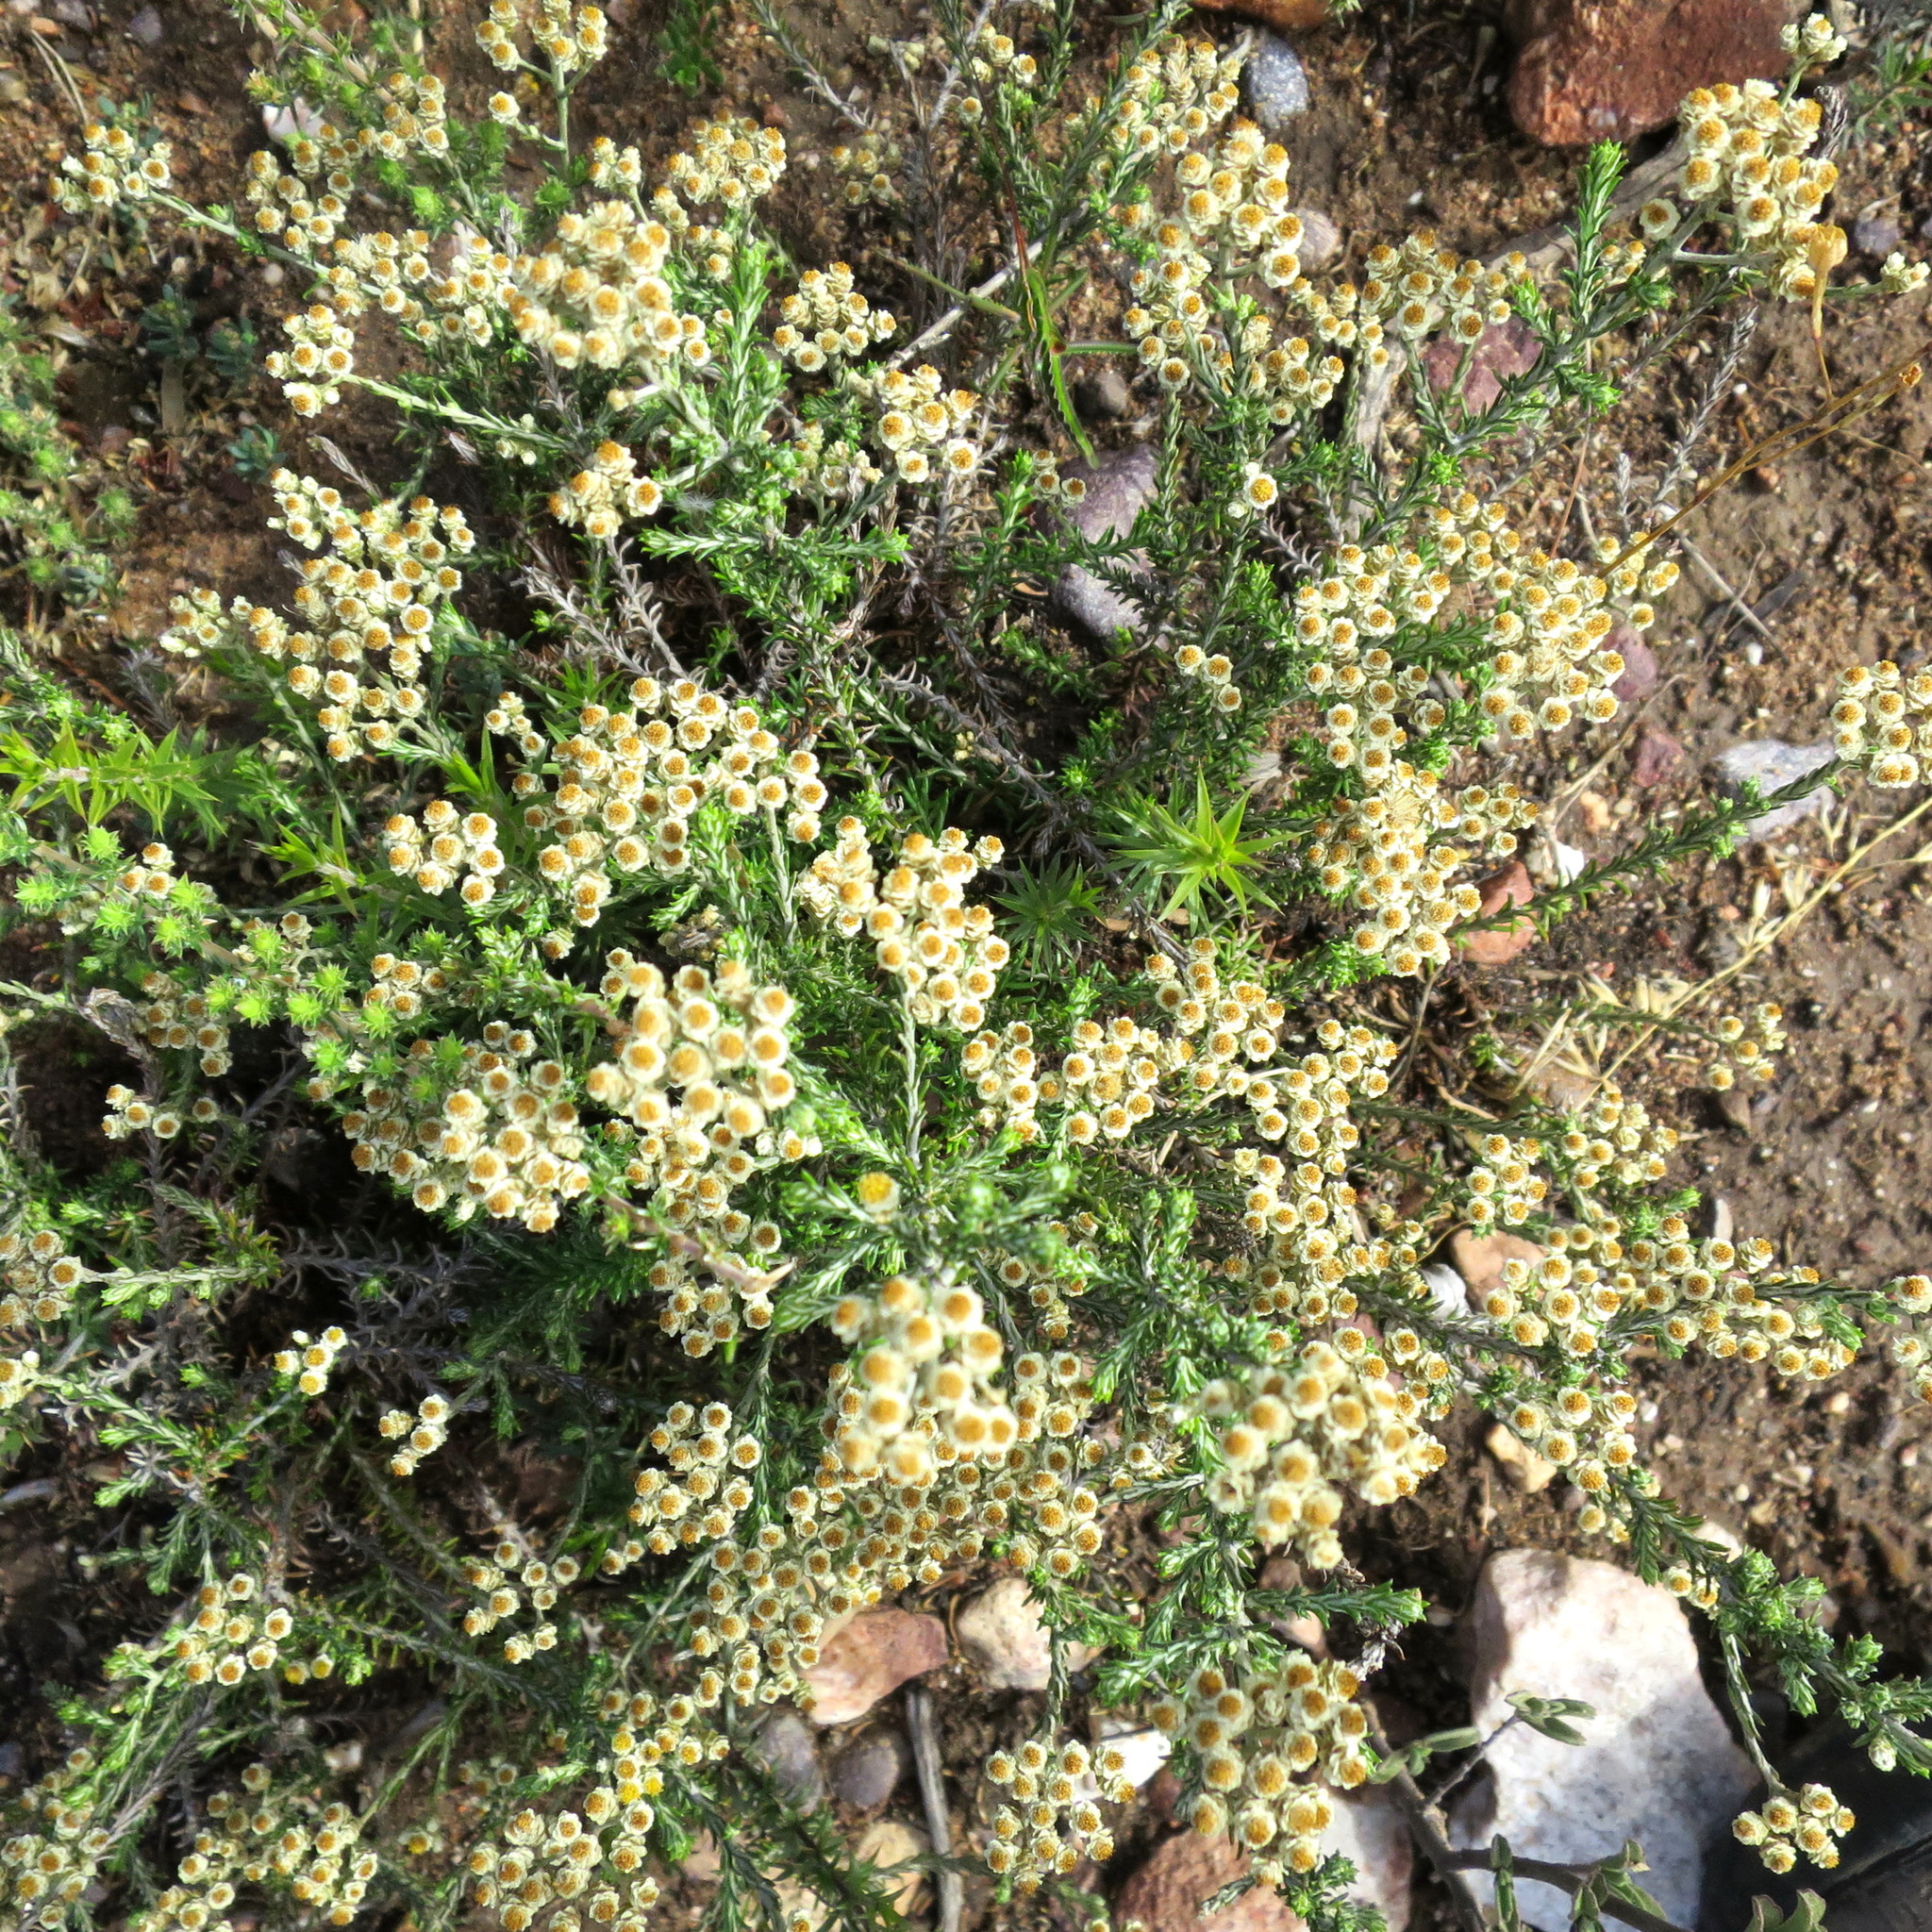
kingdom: Plantae
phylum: Tracheophyta
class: Magnoliopsida
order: Asterales
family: Asteraceae
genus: Helichrysum
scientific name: Helichrysum teretifolium
